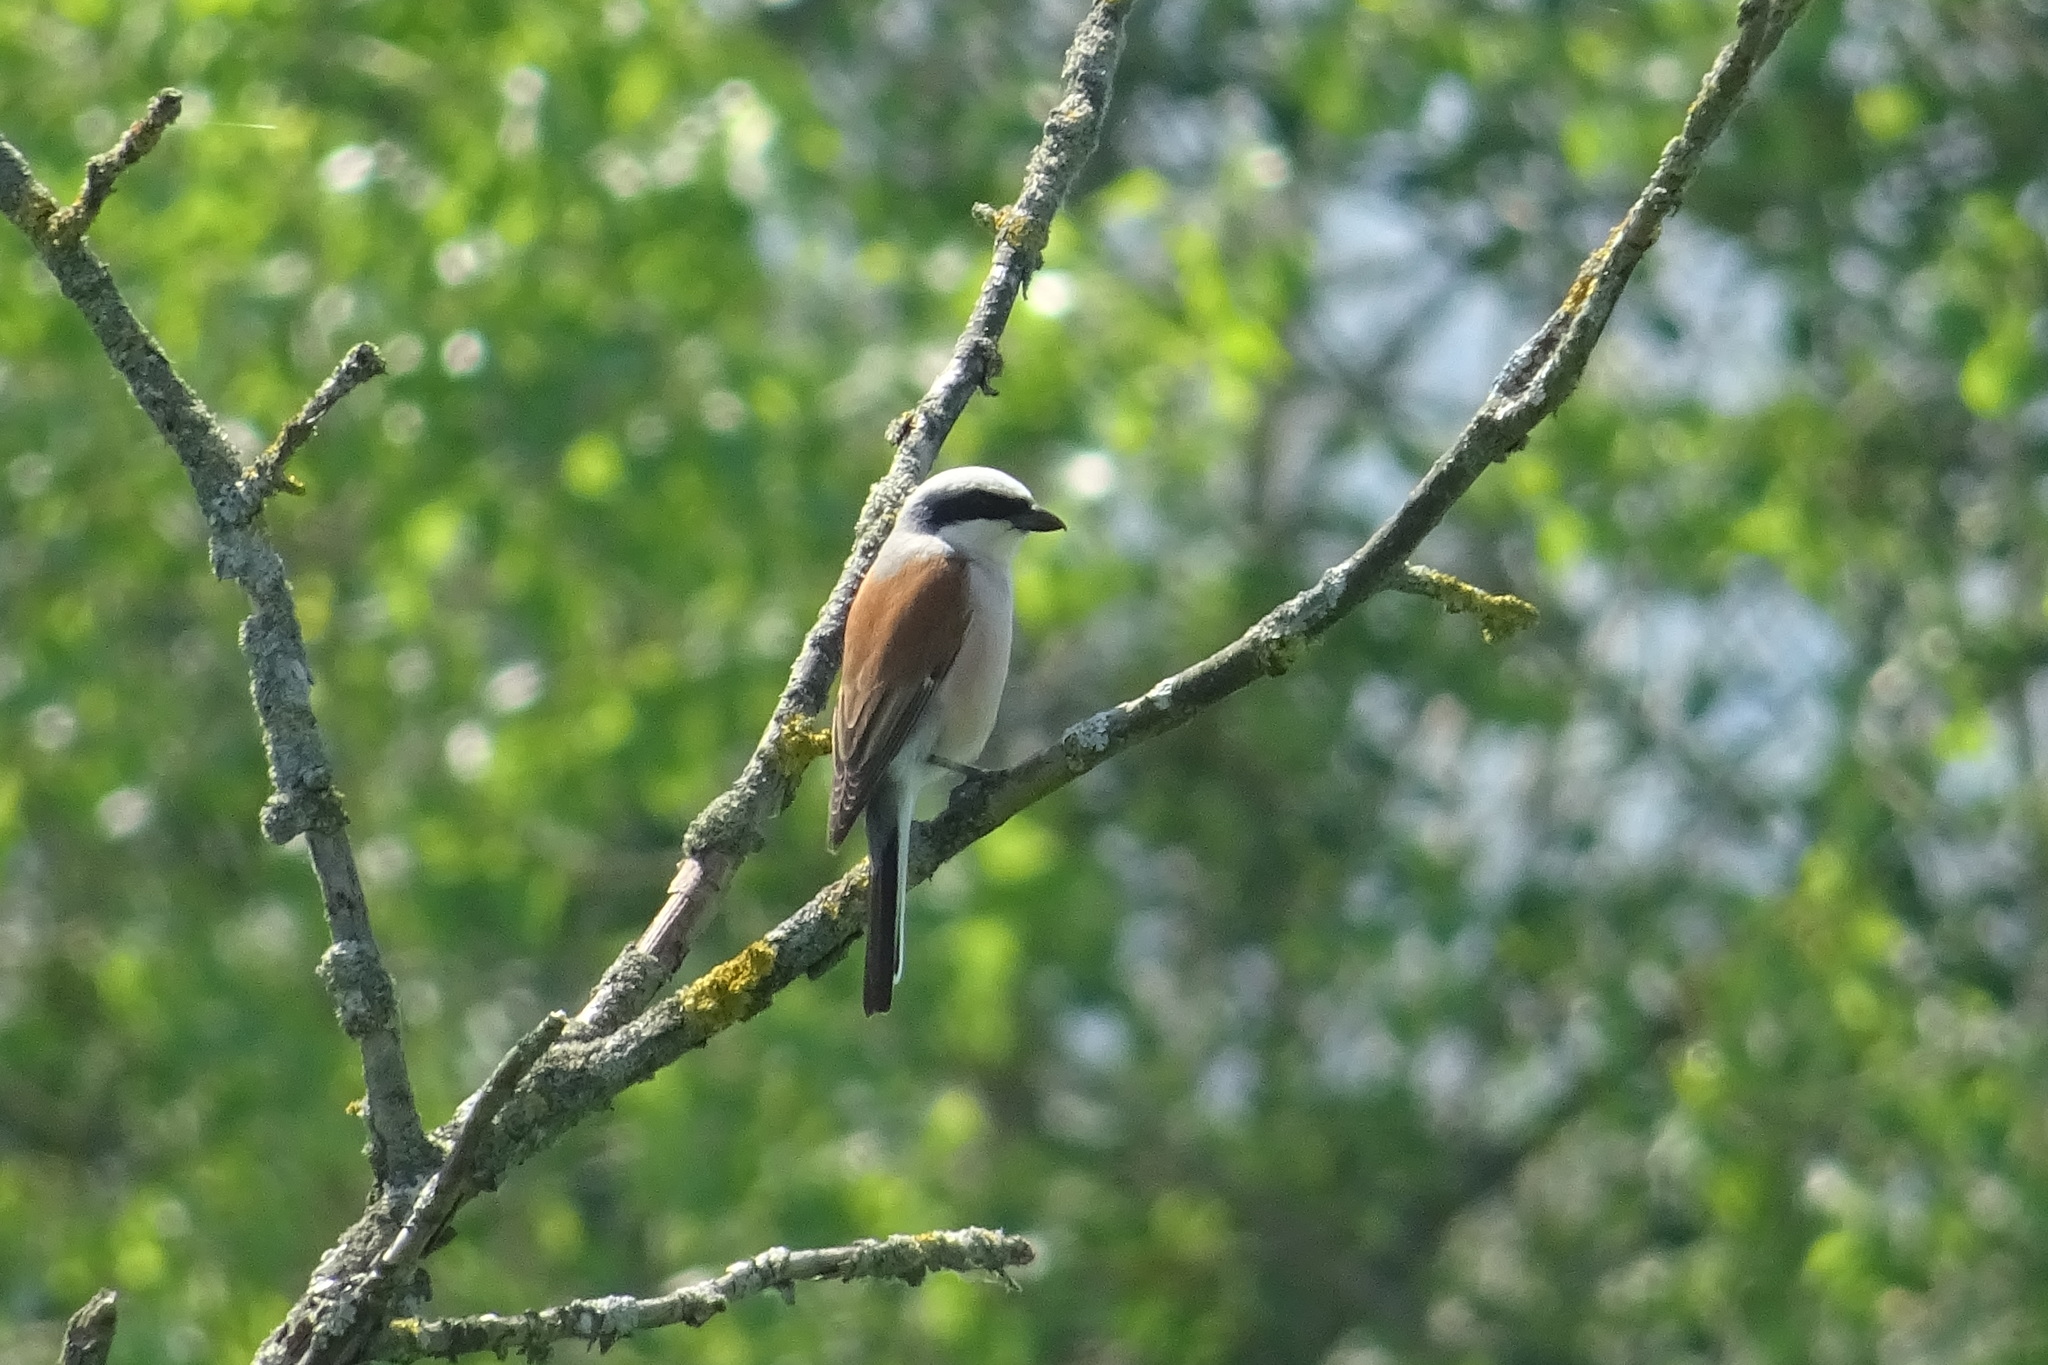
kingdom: Animalia
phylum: Chordata
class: Aves
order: Passeriformes
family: Laniidae
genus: Lanius
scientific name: Lanius collurio
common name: Red-backed shrike
